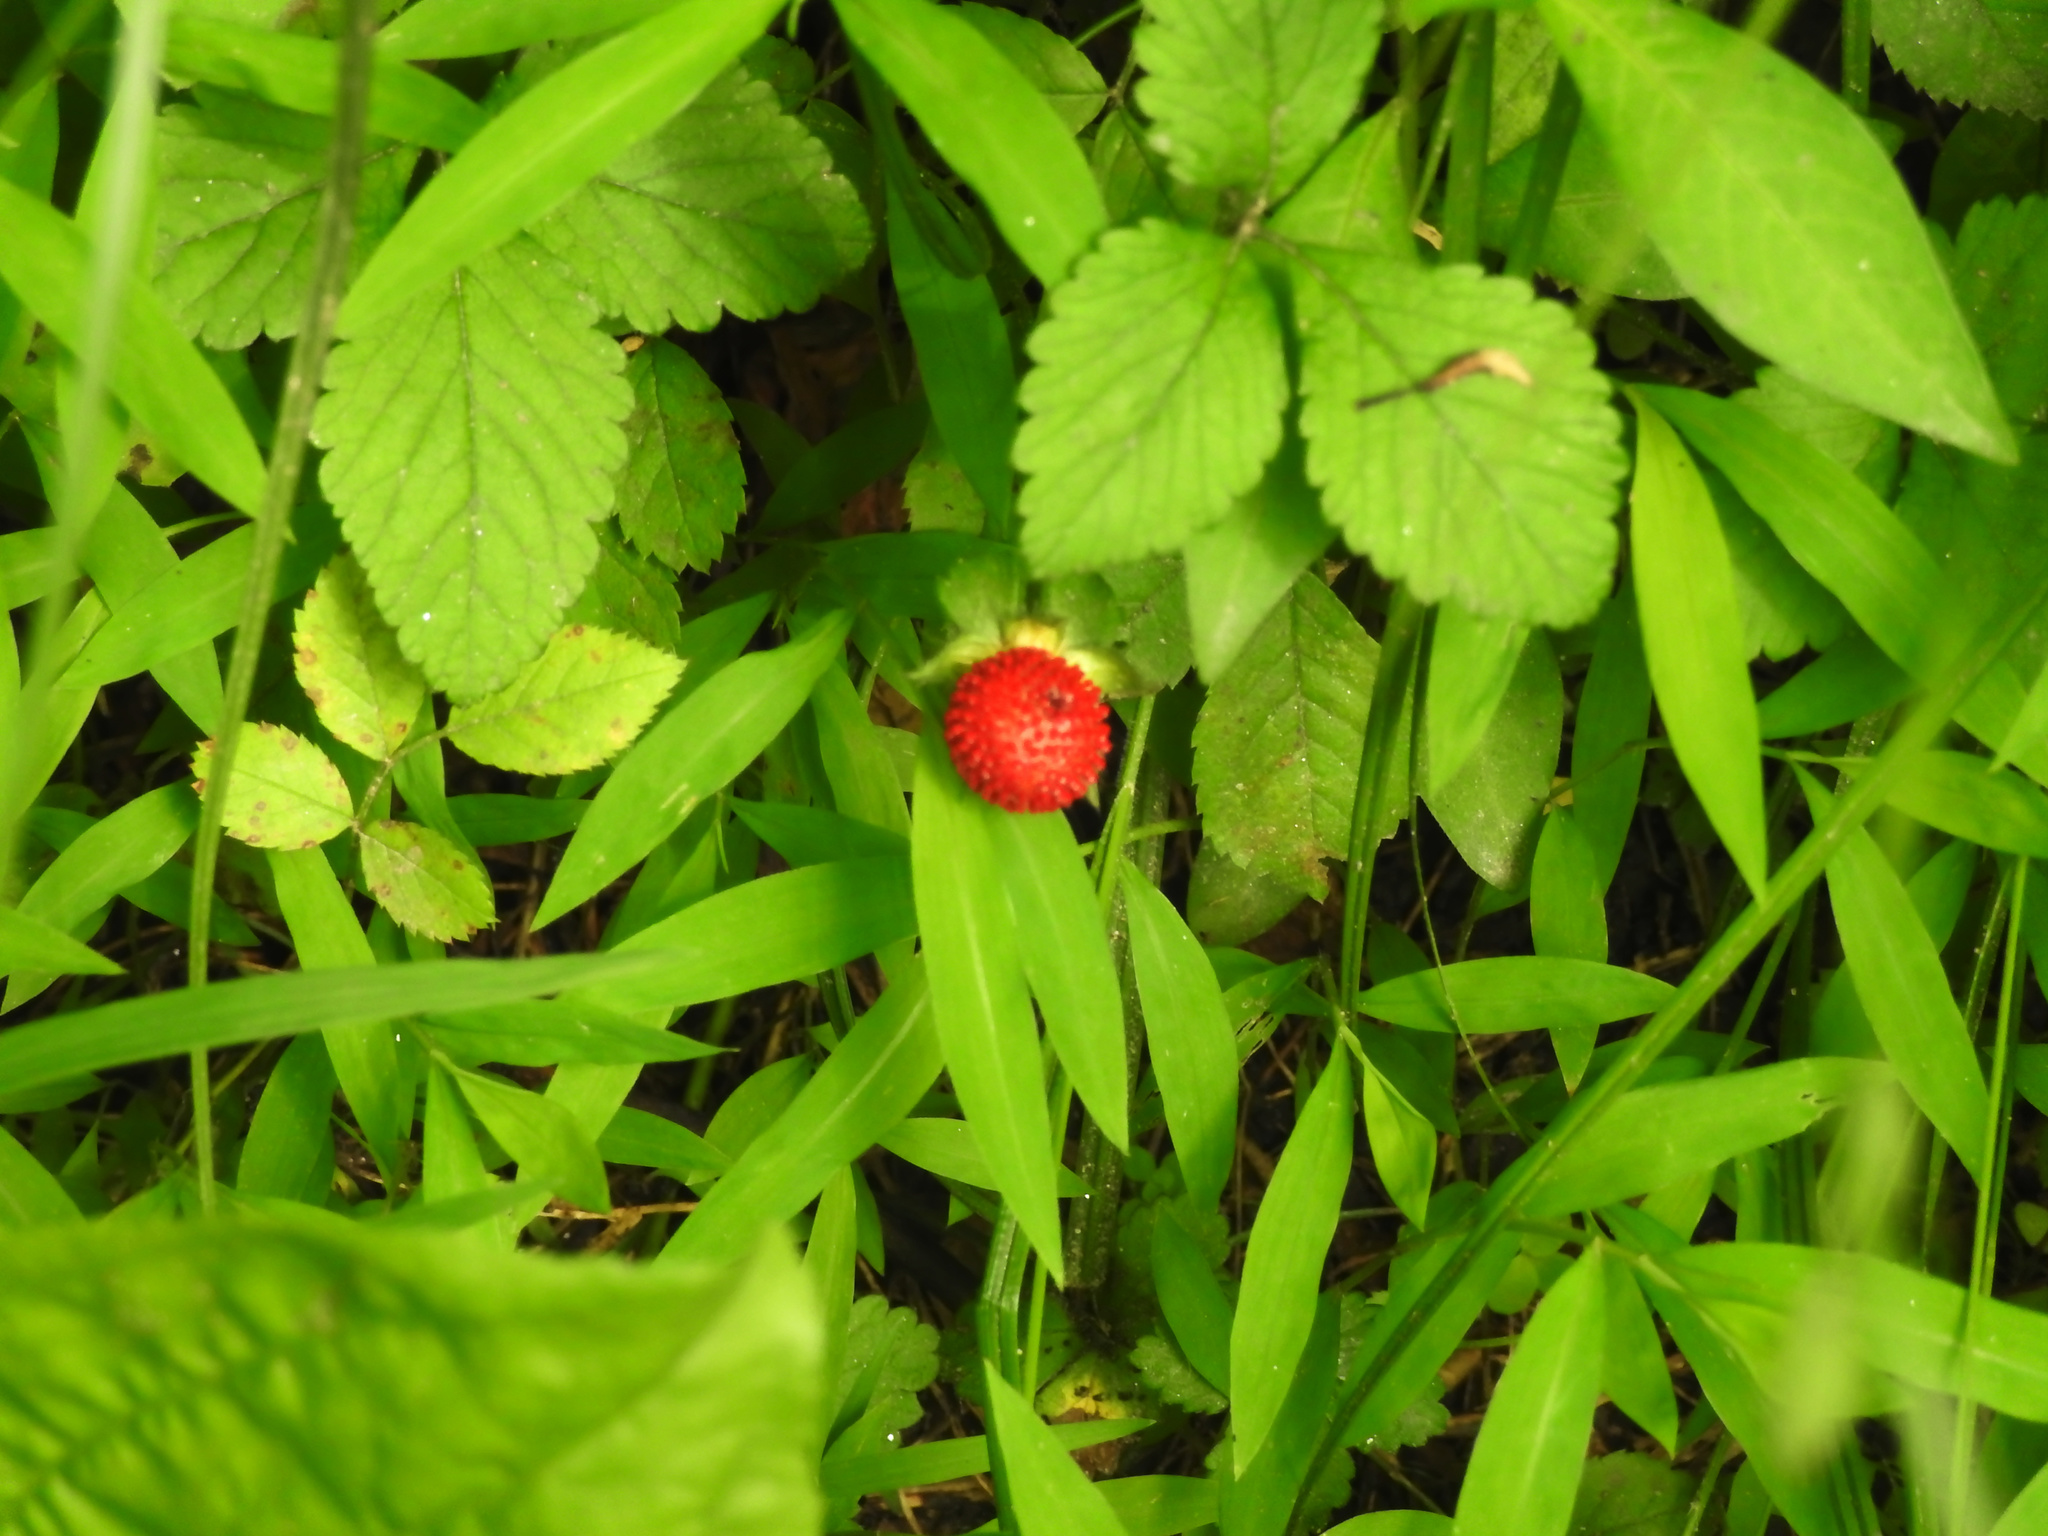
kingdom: Plantae
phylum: Tracheophyta
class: Magnoliopsida
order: Rosales
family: Rosaceae
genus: Potentilla
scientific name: Potentilla indica
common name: Yellow-flowered strawberry
